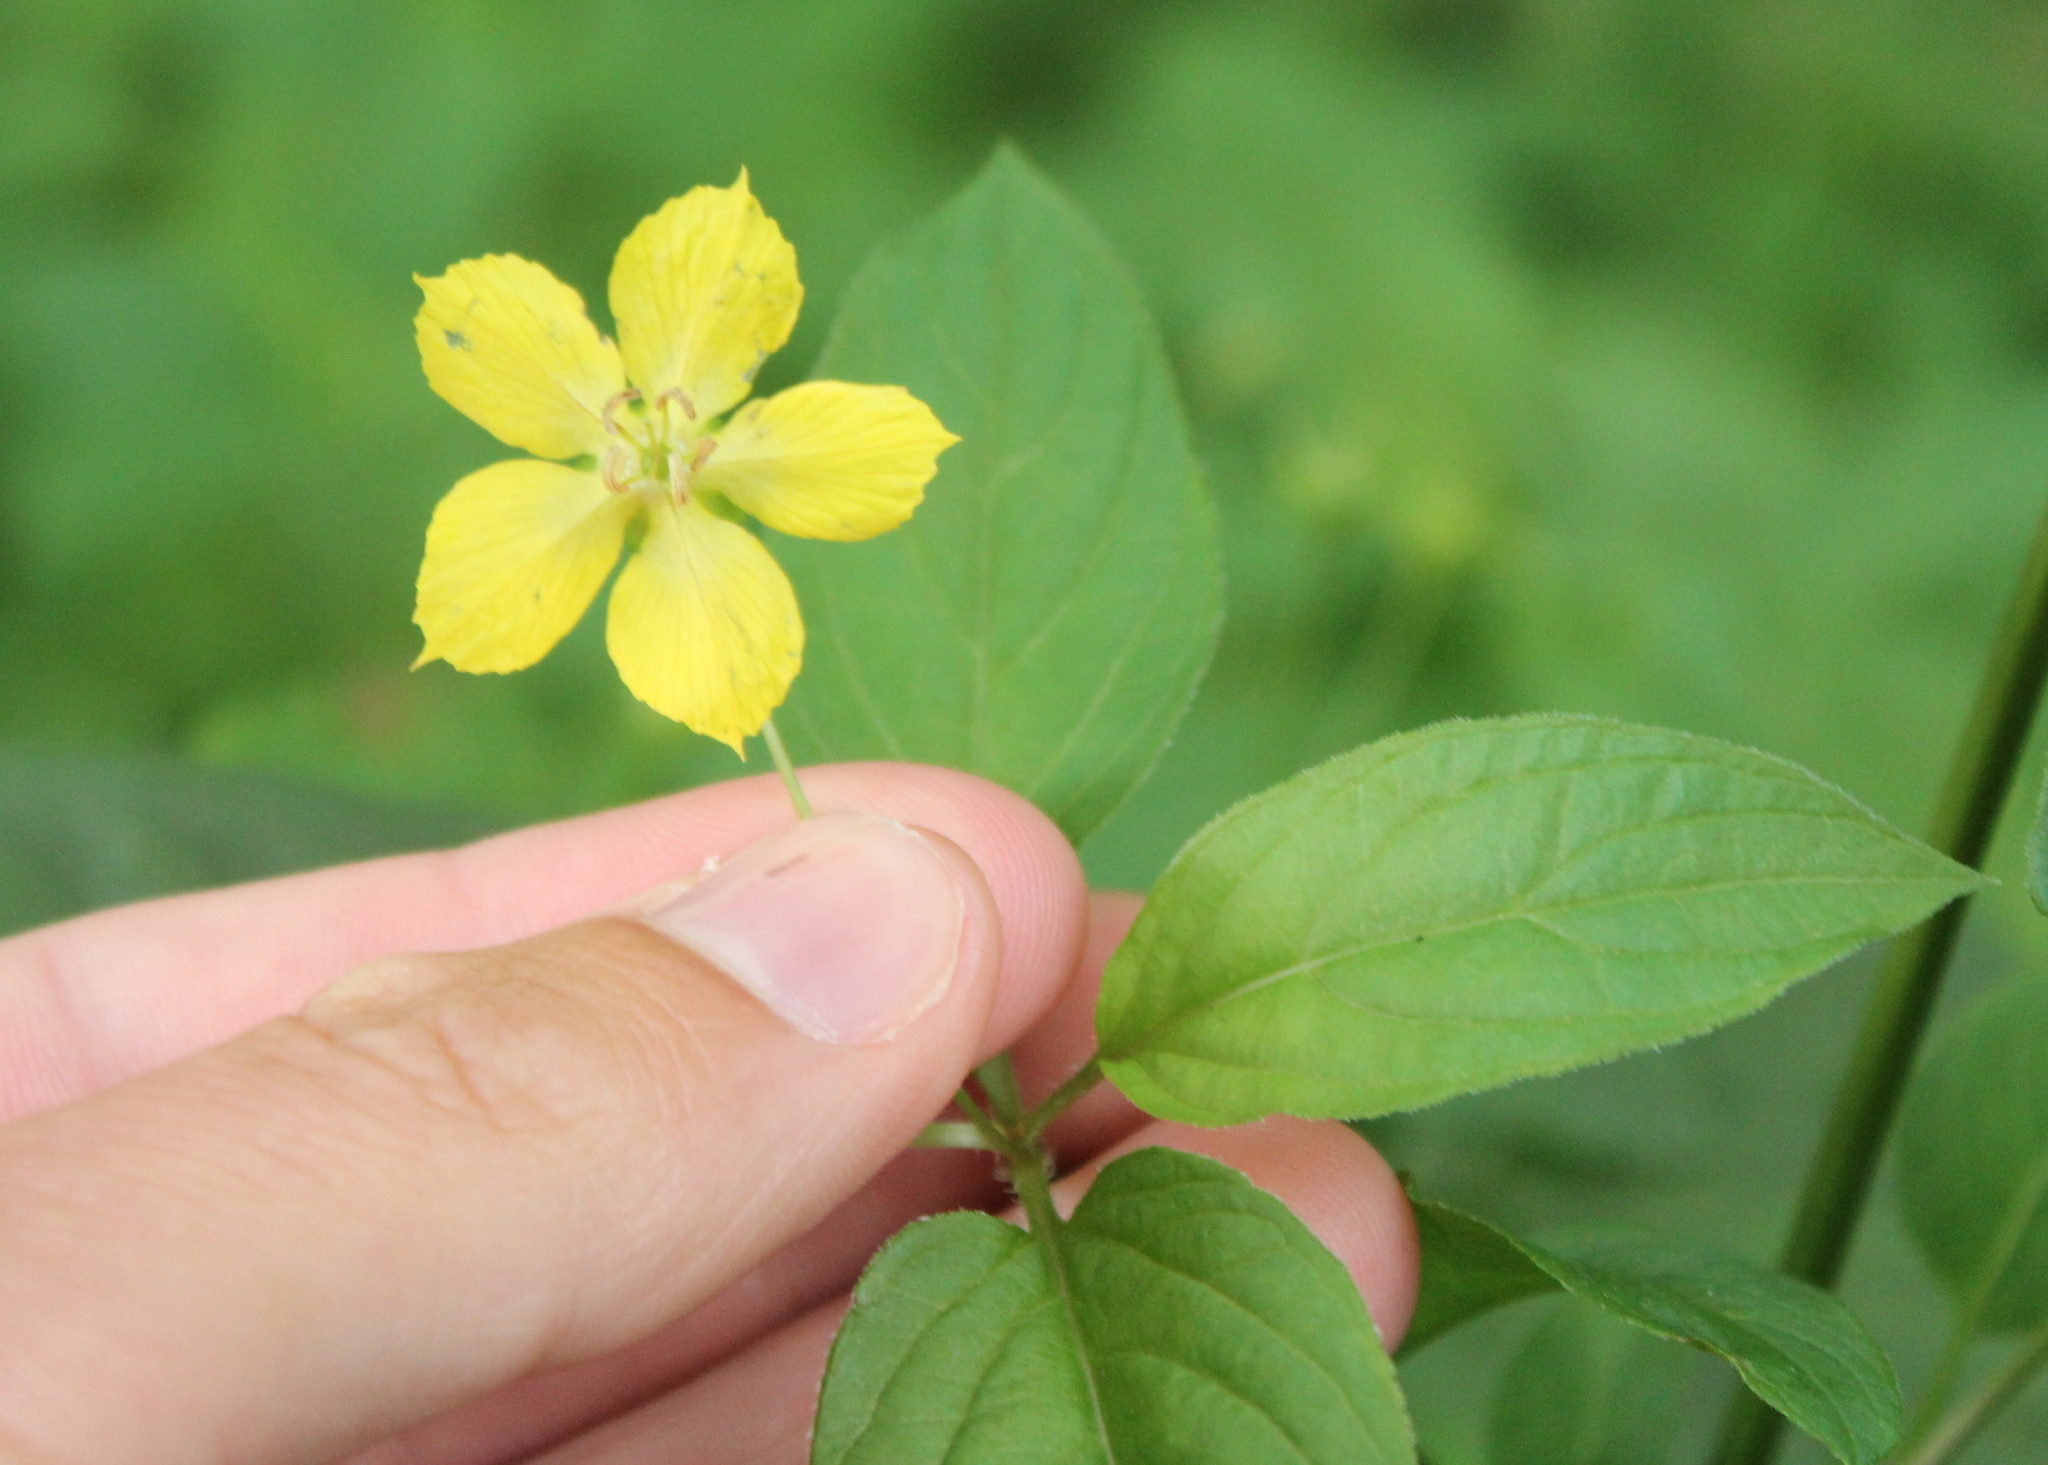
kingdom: Plantae
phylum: Tracheophyta
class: Magnoliopsida
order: Ericales
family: Primulaceae
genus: Lysimachia
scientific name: Lysimachia ciliata
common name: Fringed loosestrife
